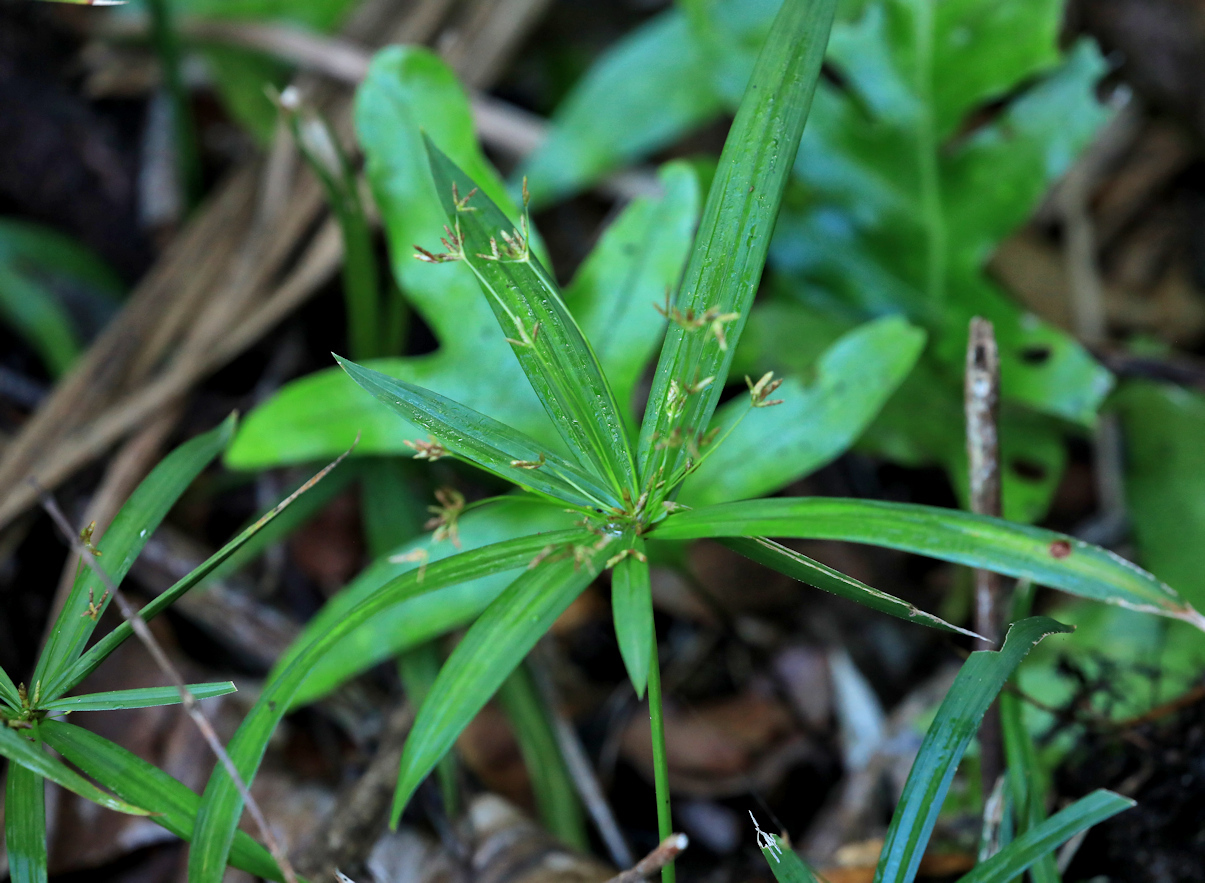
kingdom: Plantae
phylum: Tracheophyta
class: Liliopsida
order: Poales
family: Cyperaceae
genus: Cyperus
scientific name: Cyperus albostriatus
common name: Dwarf umbrella-grass
